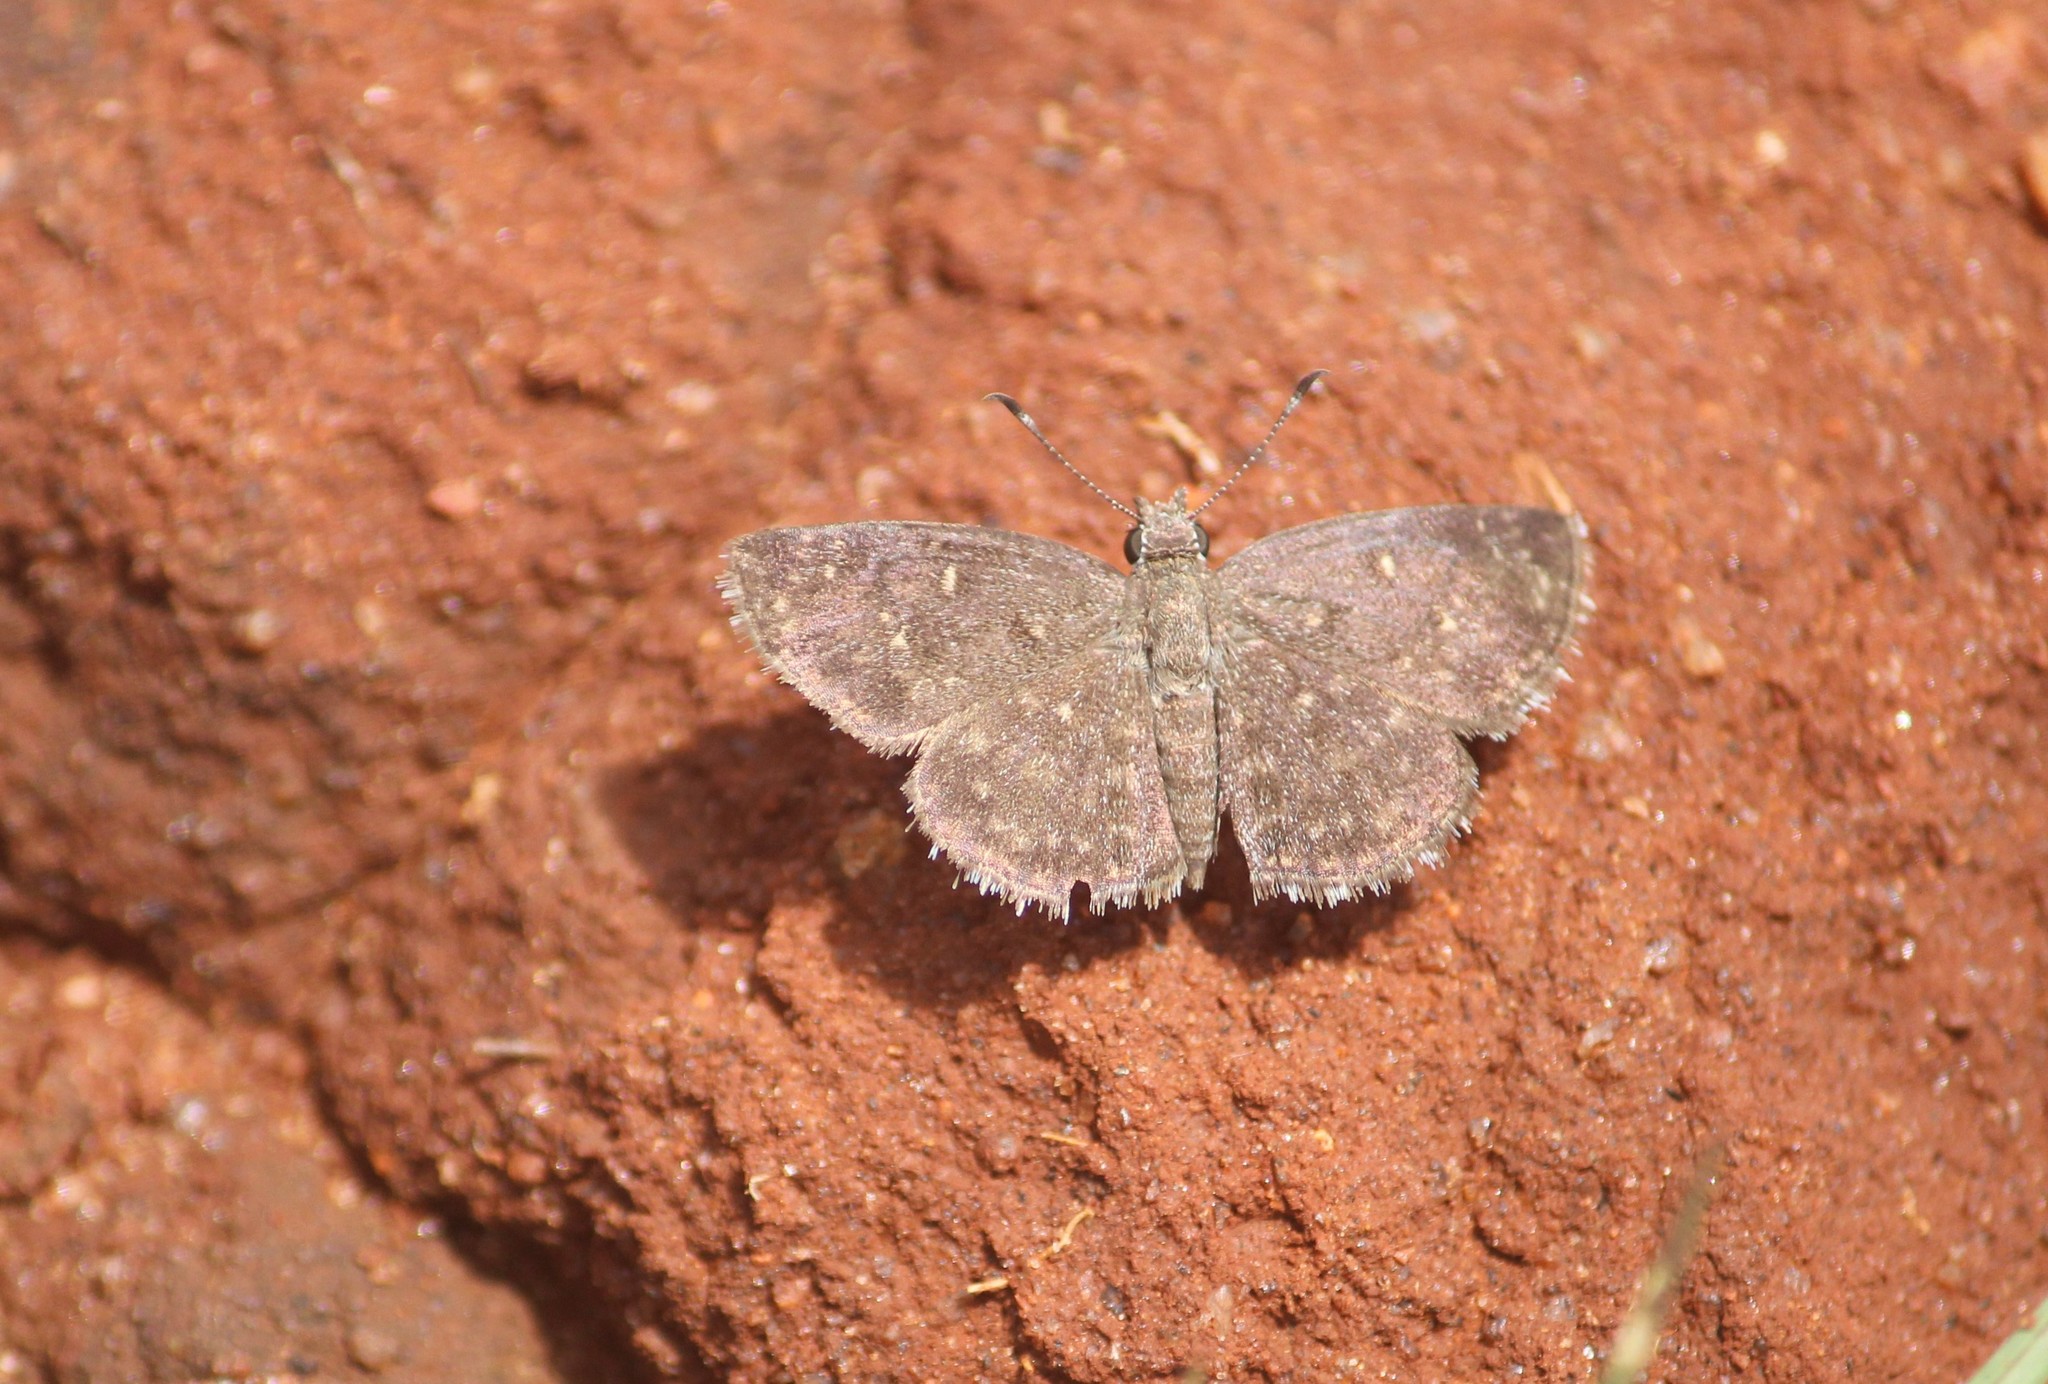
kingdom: Animalia
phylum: Arthropoda
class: Insecta
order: Lepidoptera
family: Hesperiidae
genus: Sarangesa
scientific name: Sarangesa purendra
